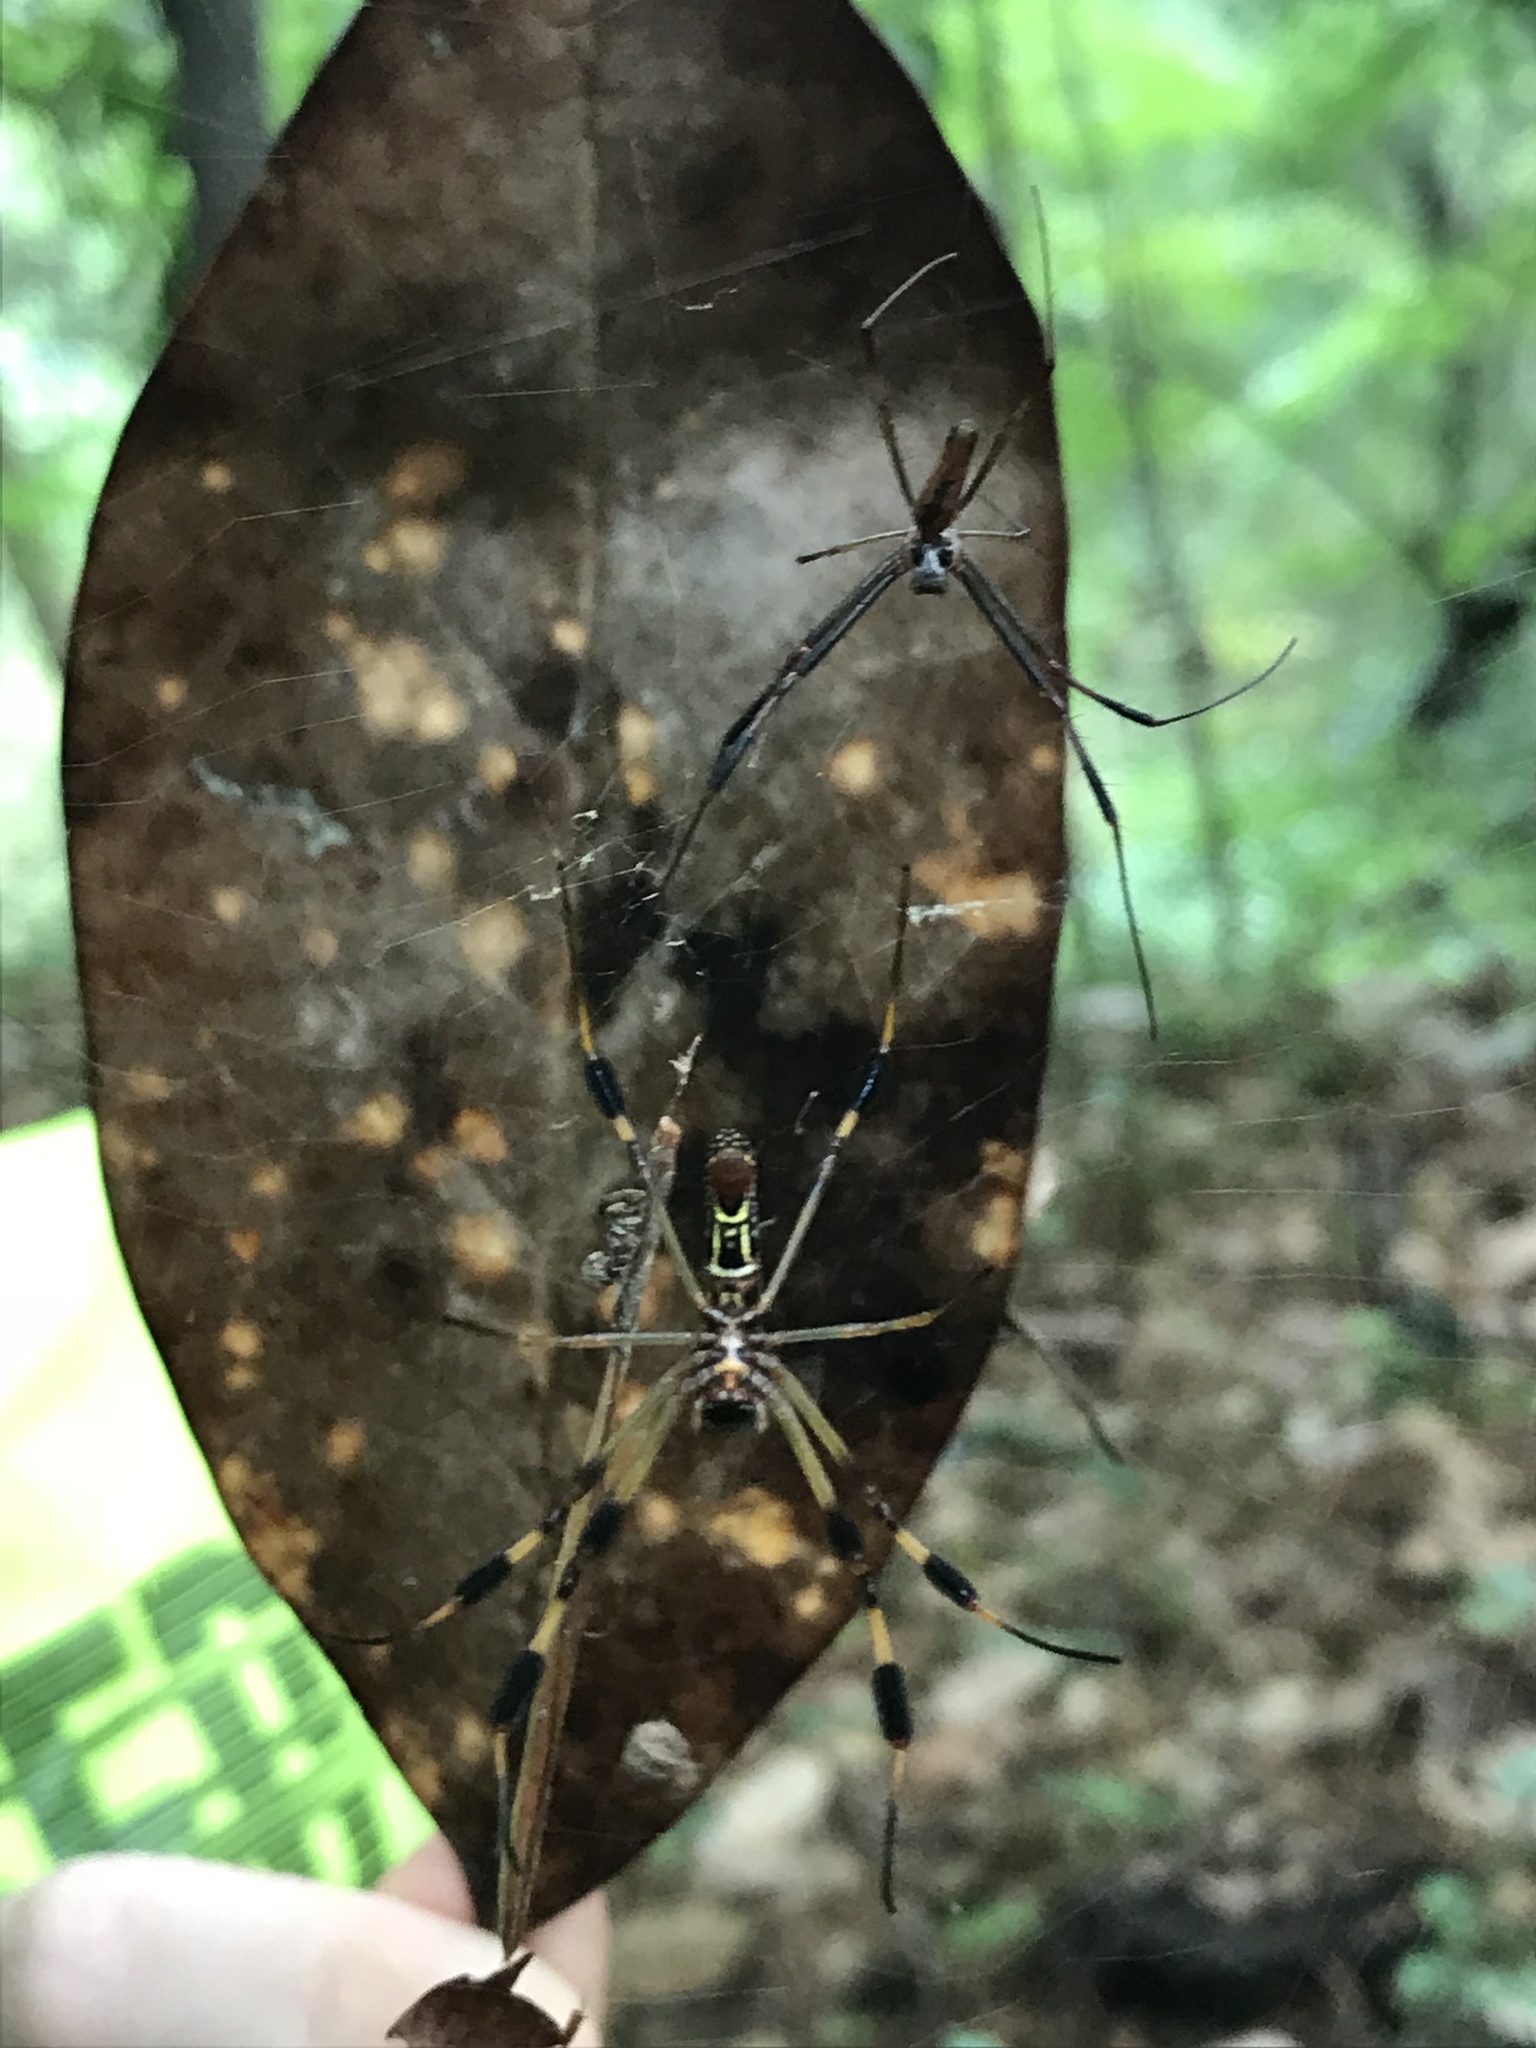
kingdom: Animalia
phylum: Arthropoda
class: Arachnida
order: Araneae
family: Araneidae
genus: Trichonephila
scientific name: Trichonephila clavipes
